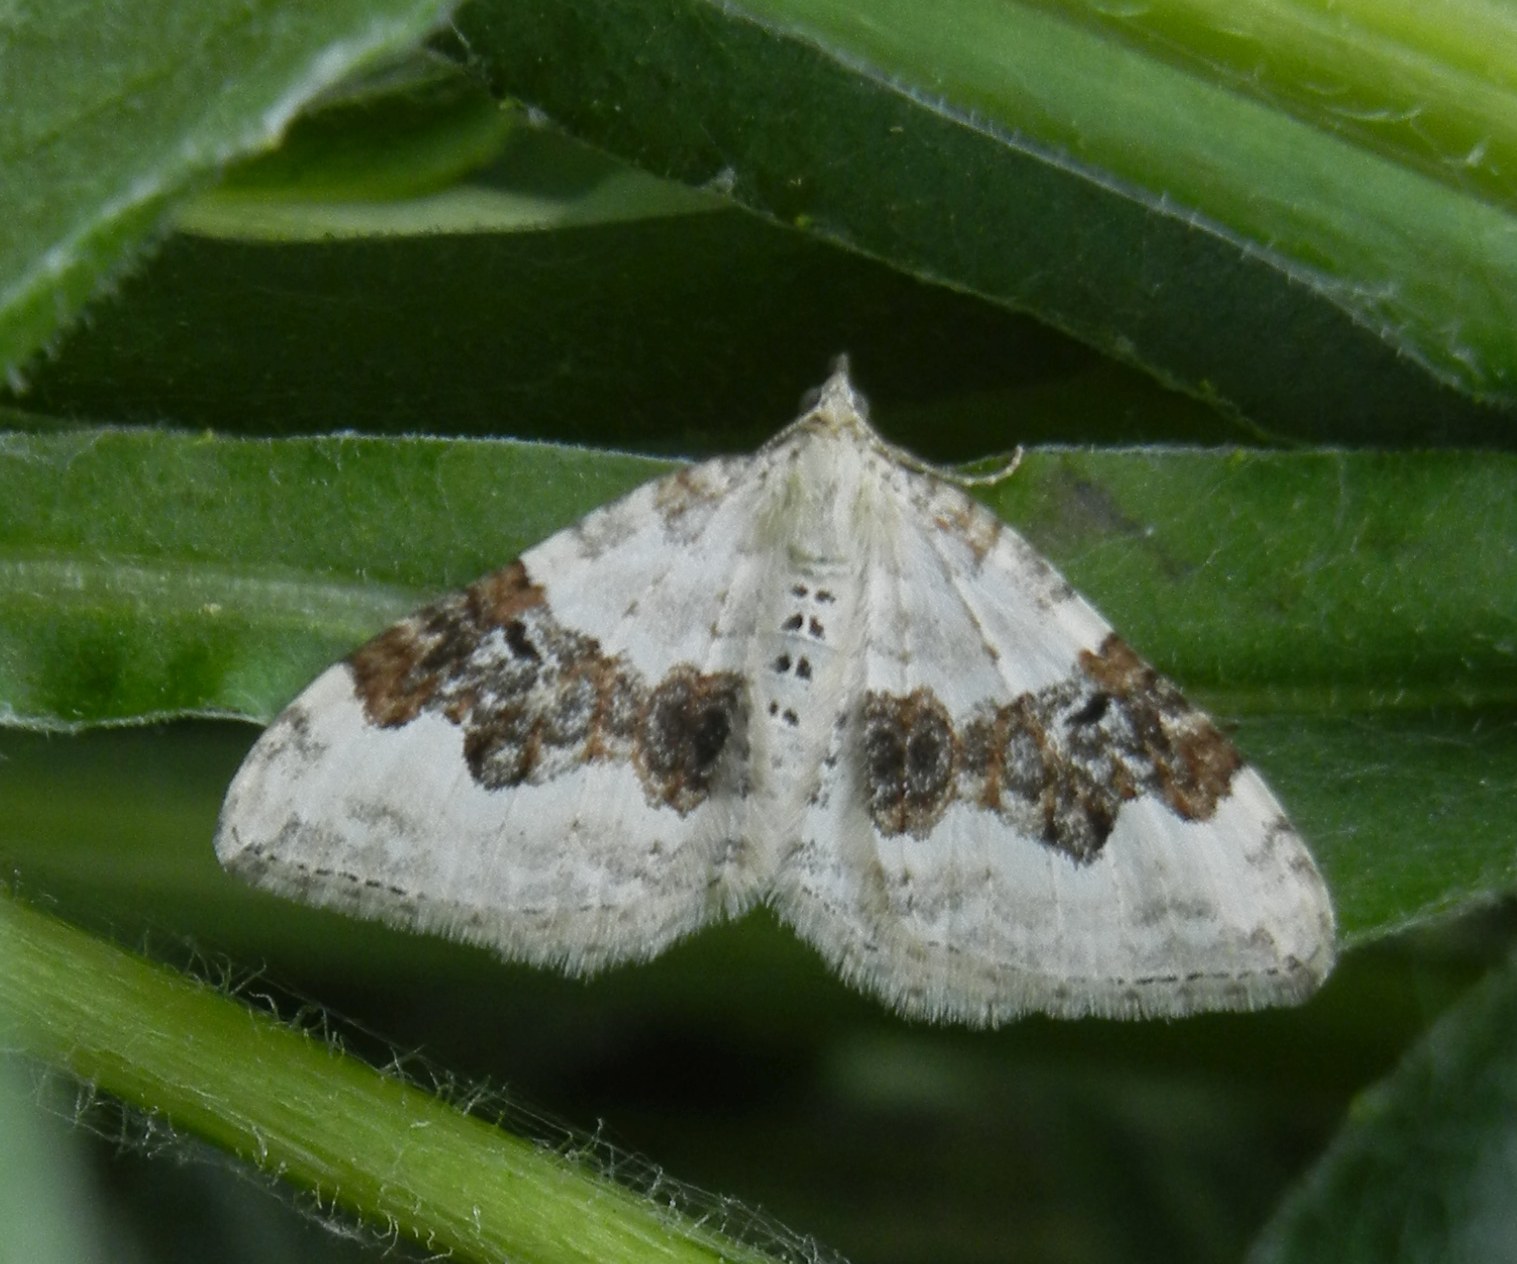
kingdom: Animalia
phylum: Arthropoda
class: Insecta
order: Lepidoptera
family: Geometridae
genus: Xanthorhoe
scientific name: Xanthorhoe montanata
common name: Silver-ground carpet
